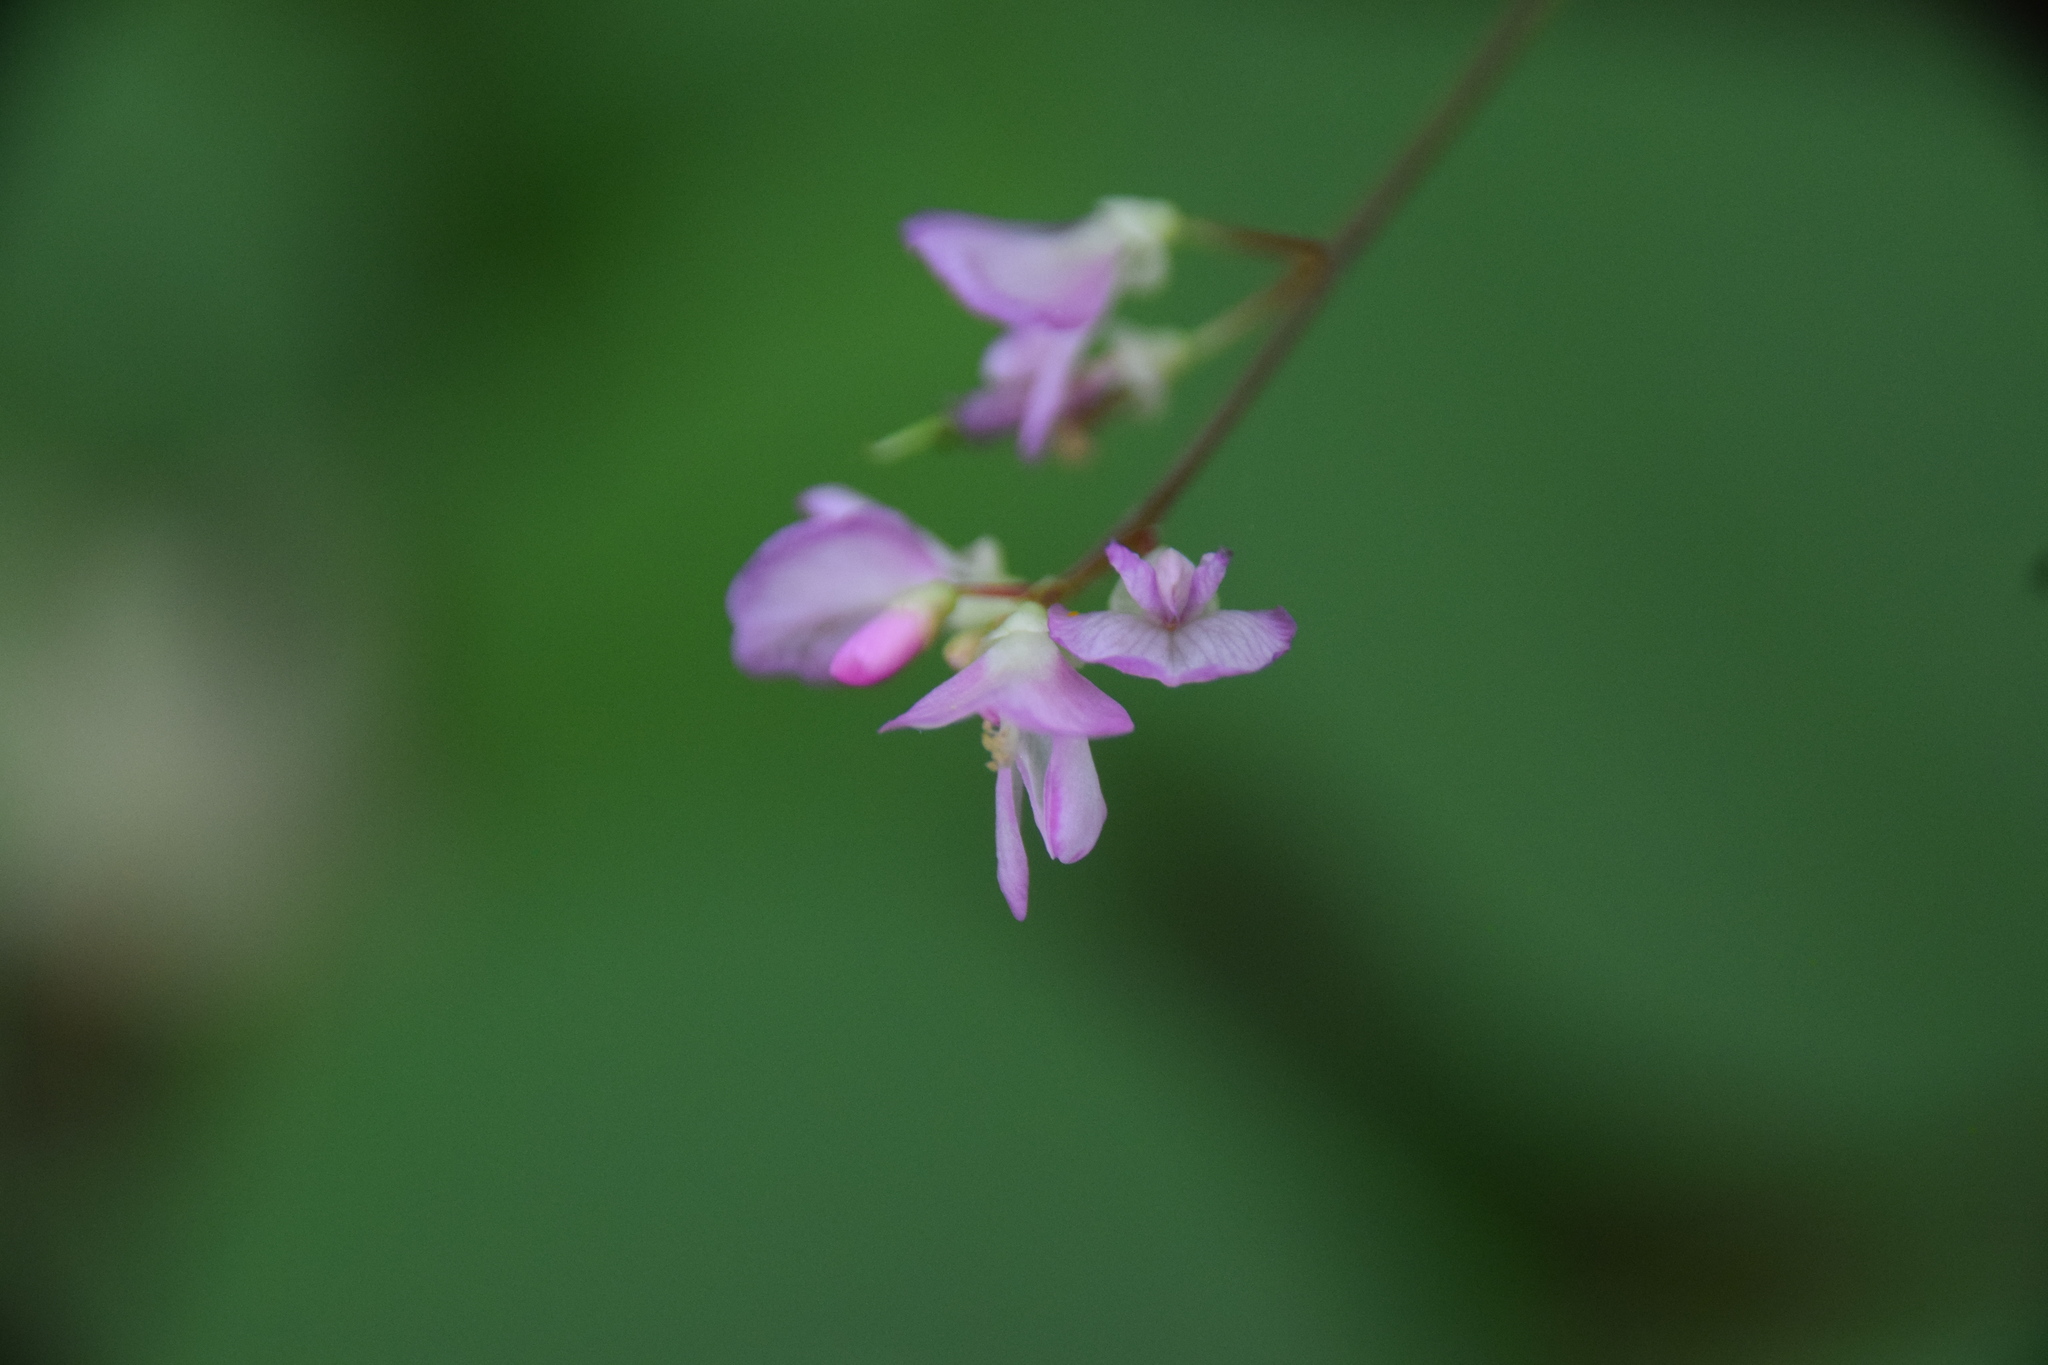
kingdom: Plantae
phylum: Tracheophyta
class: Magnoliopsida
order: Fabales
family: Fabaceae
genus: Hylodesmum
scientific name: Hylodesmum glutinosum
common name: Clustered-leaved tick-trefoil
